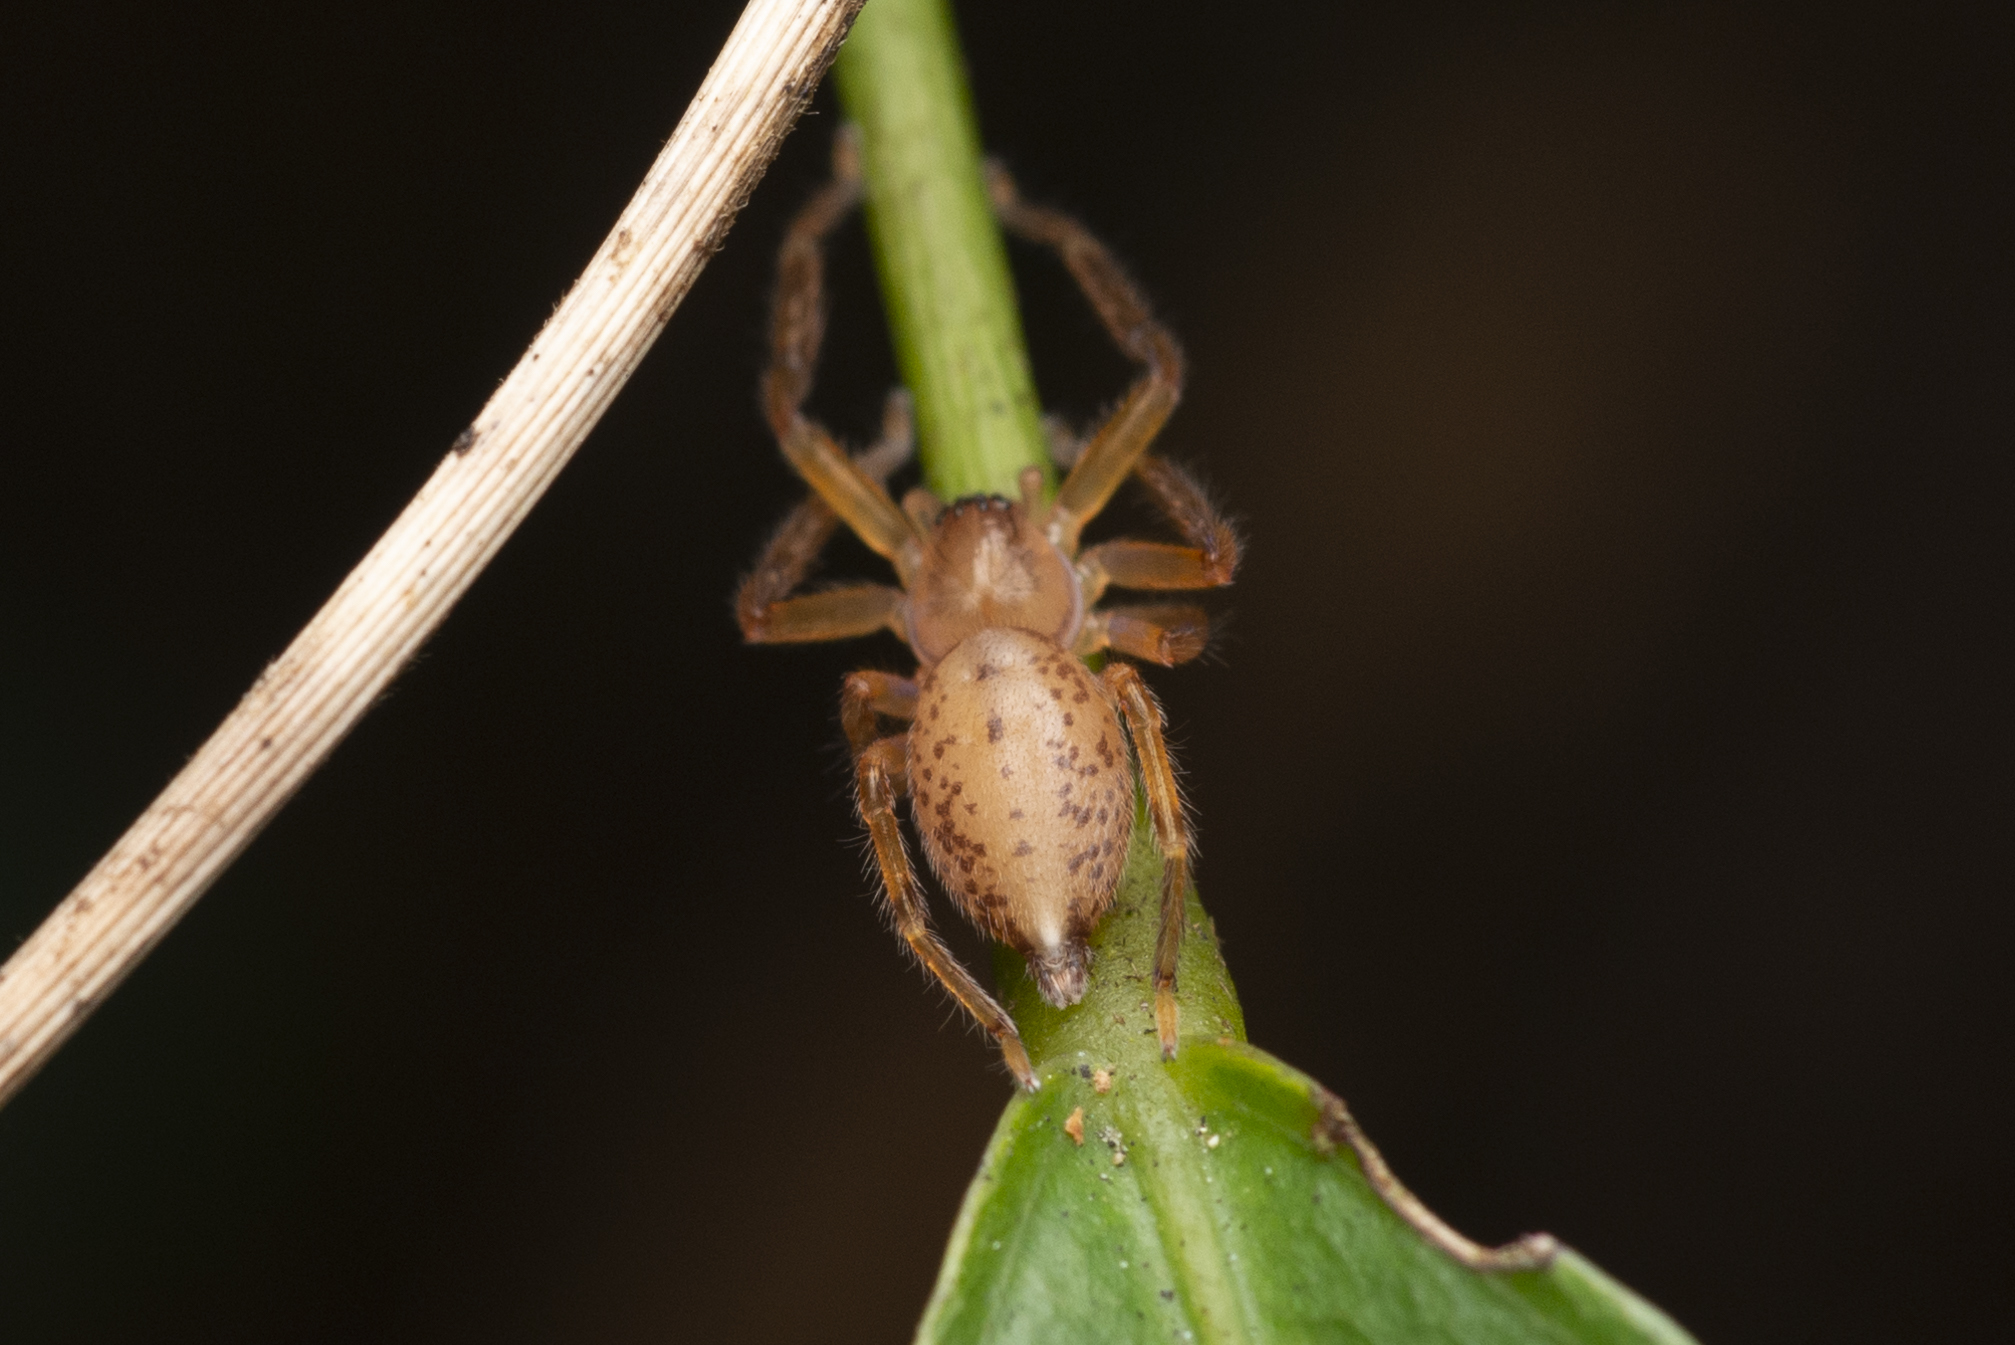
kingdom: Animalia
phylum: Arthropoda
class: Arachnida
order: Araneae
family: Sparassidae
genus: Thelcticopis
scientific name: Thelcticopis severa
